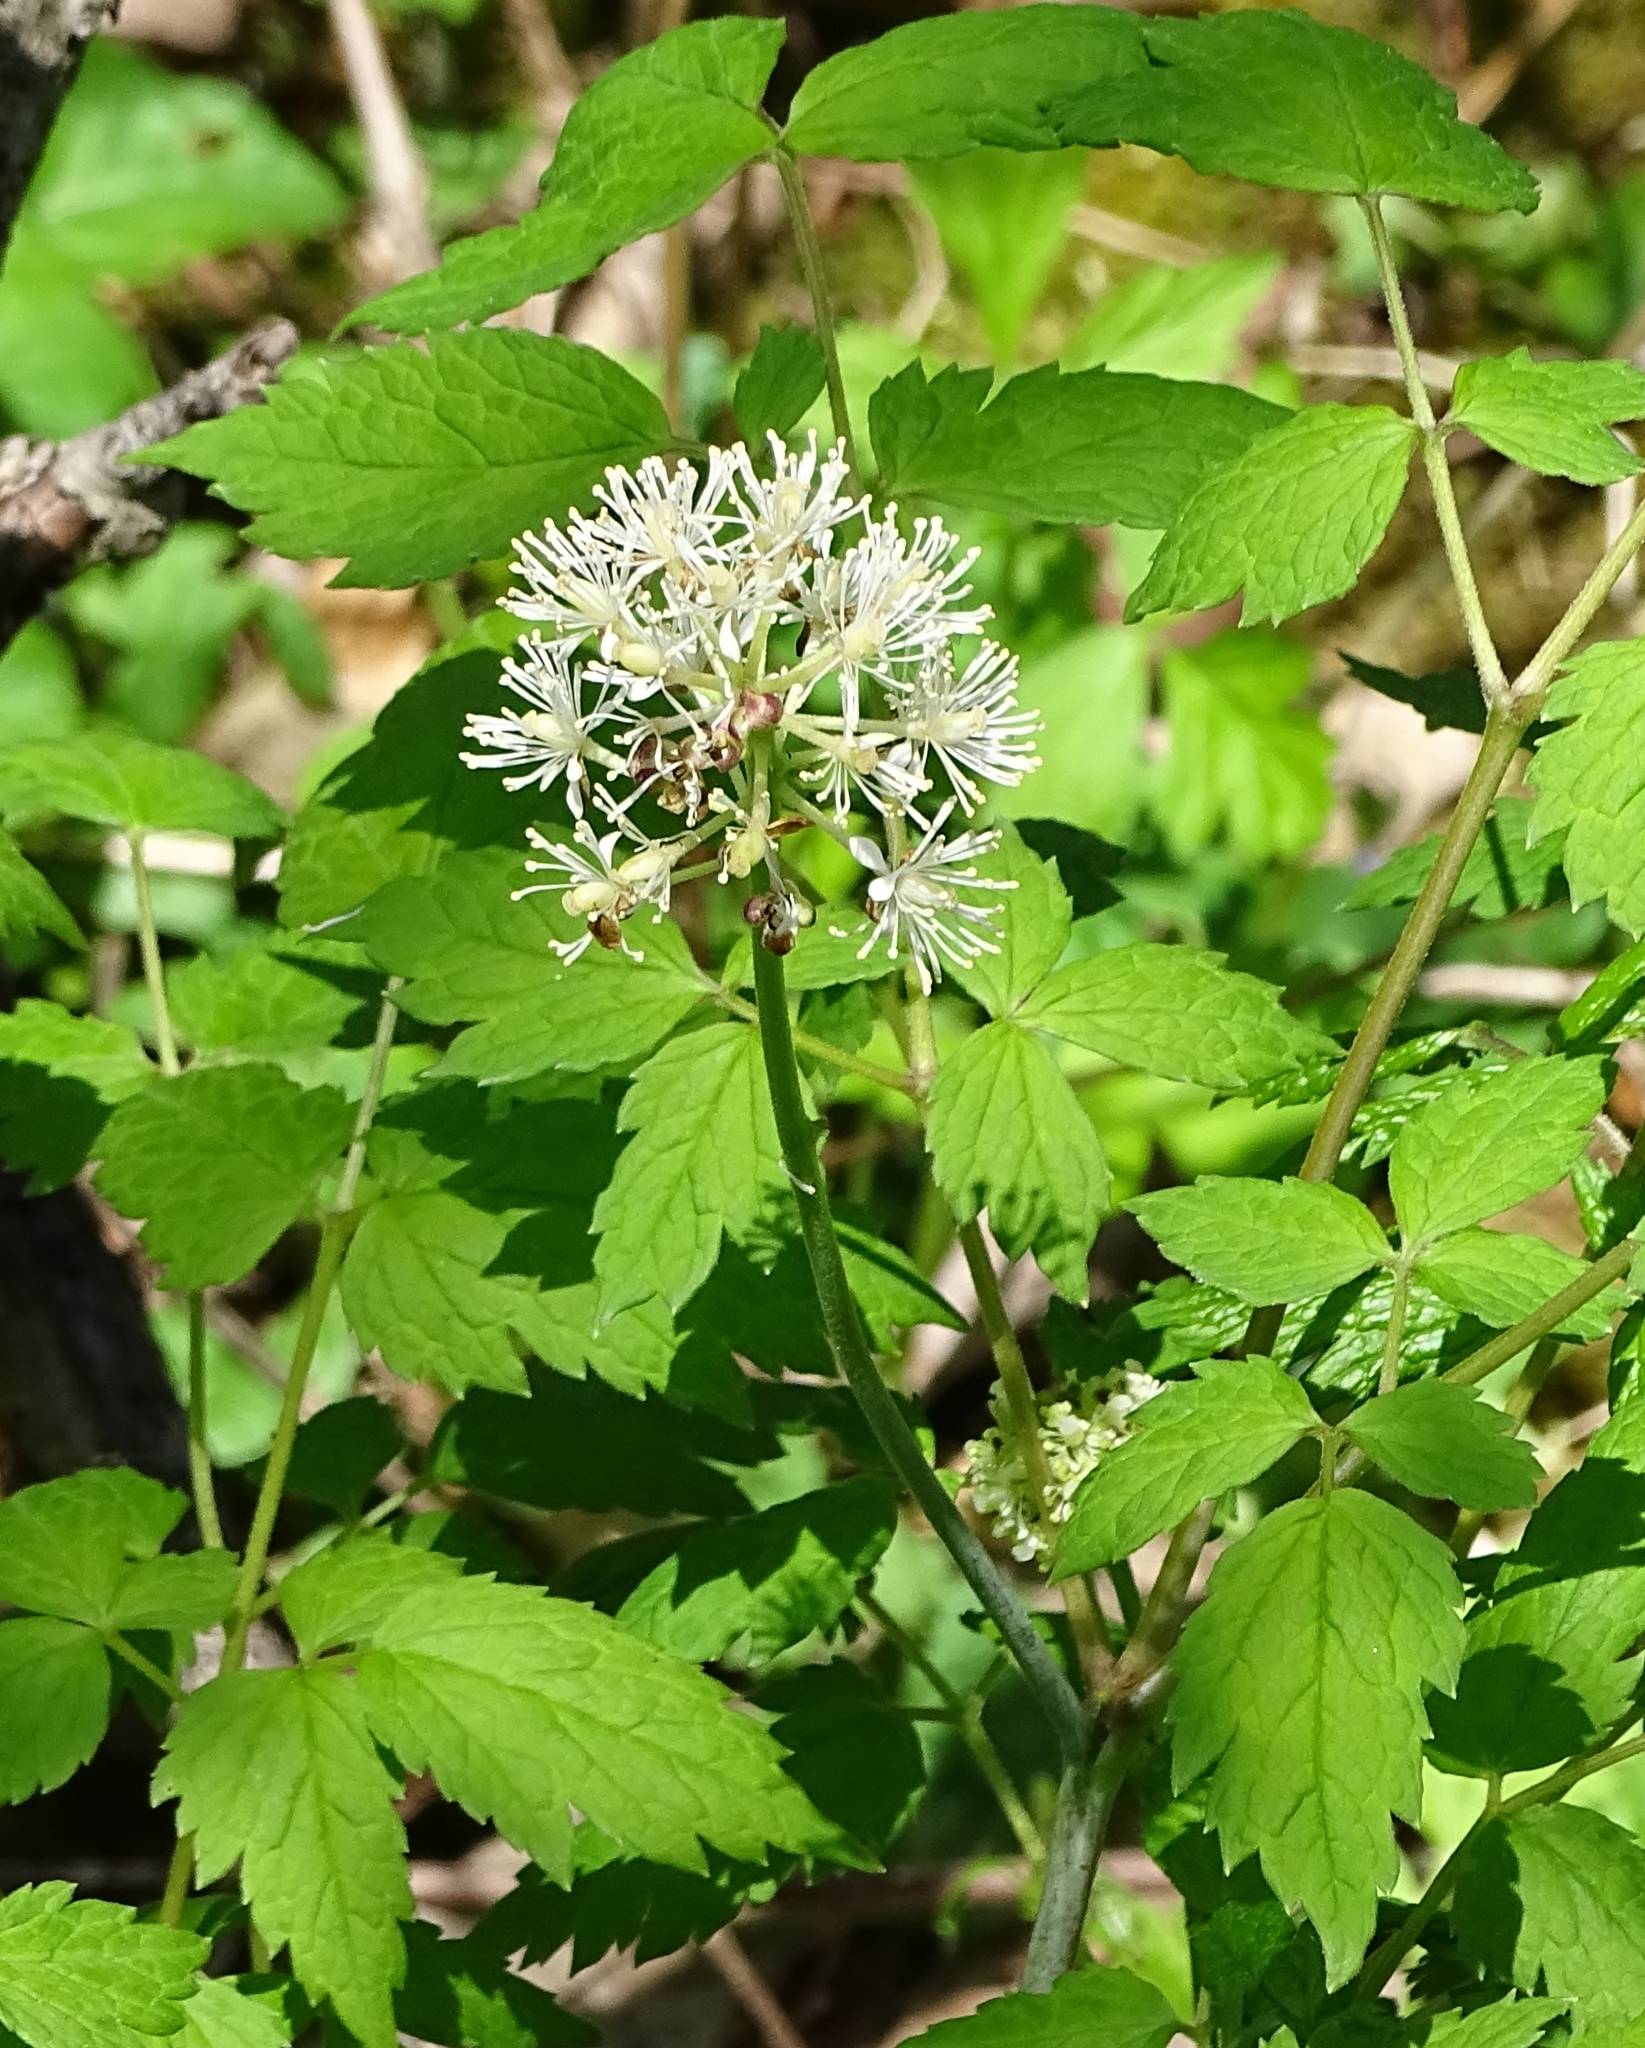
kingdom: Plantae
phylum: Tracheophyta
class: Magnoliopsida
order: Ranunculales
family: Ranunculaceae
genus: Actaea
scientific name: Actaea rubra
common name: Red baneberry
